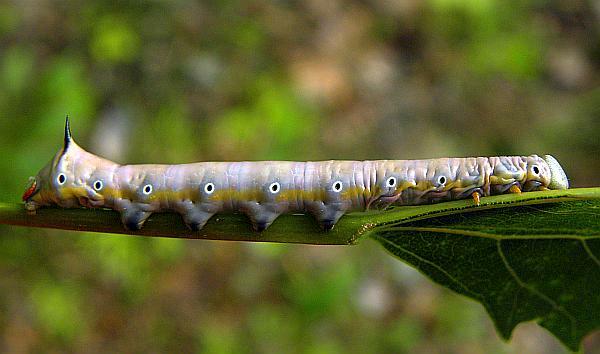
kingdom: Animalia
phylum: Arthropoda
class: Insecta
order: Lepidoptera
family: Notodontidae
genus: Pheosia
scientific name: Pheosia rimosa
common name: Black-rimmed prominent
